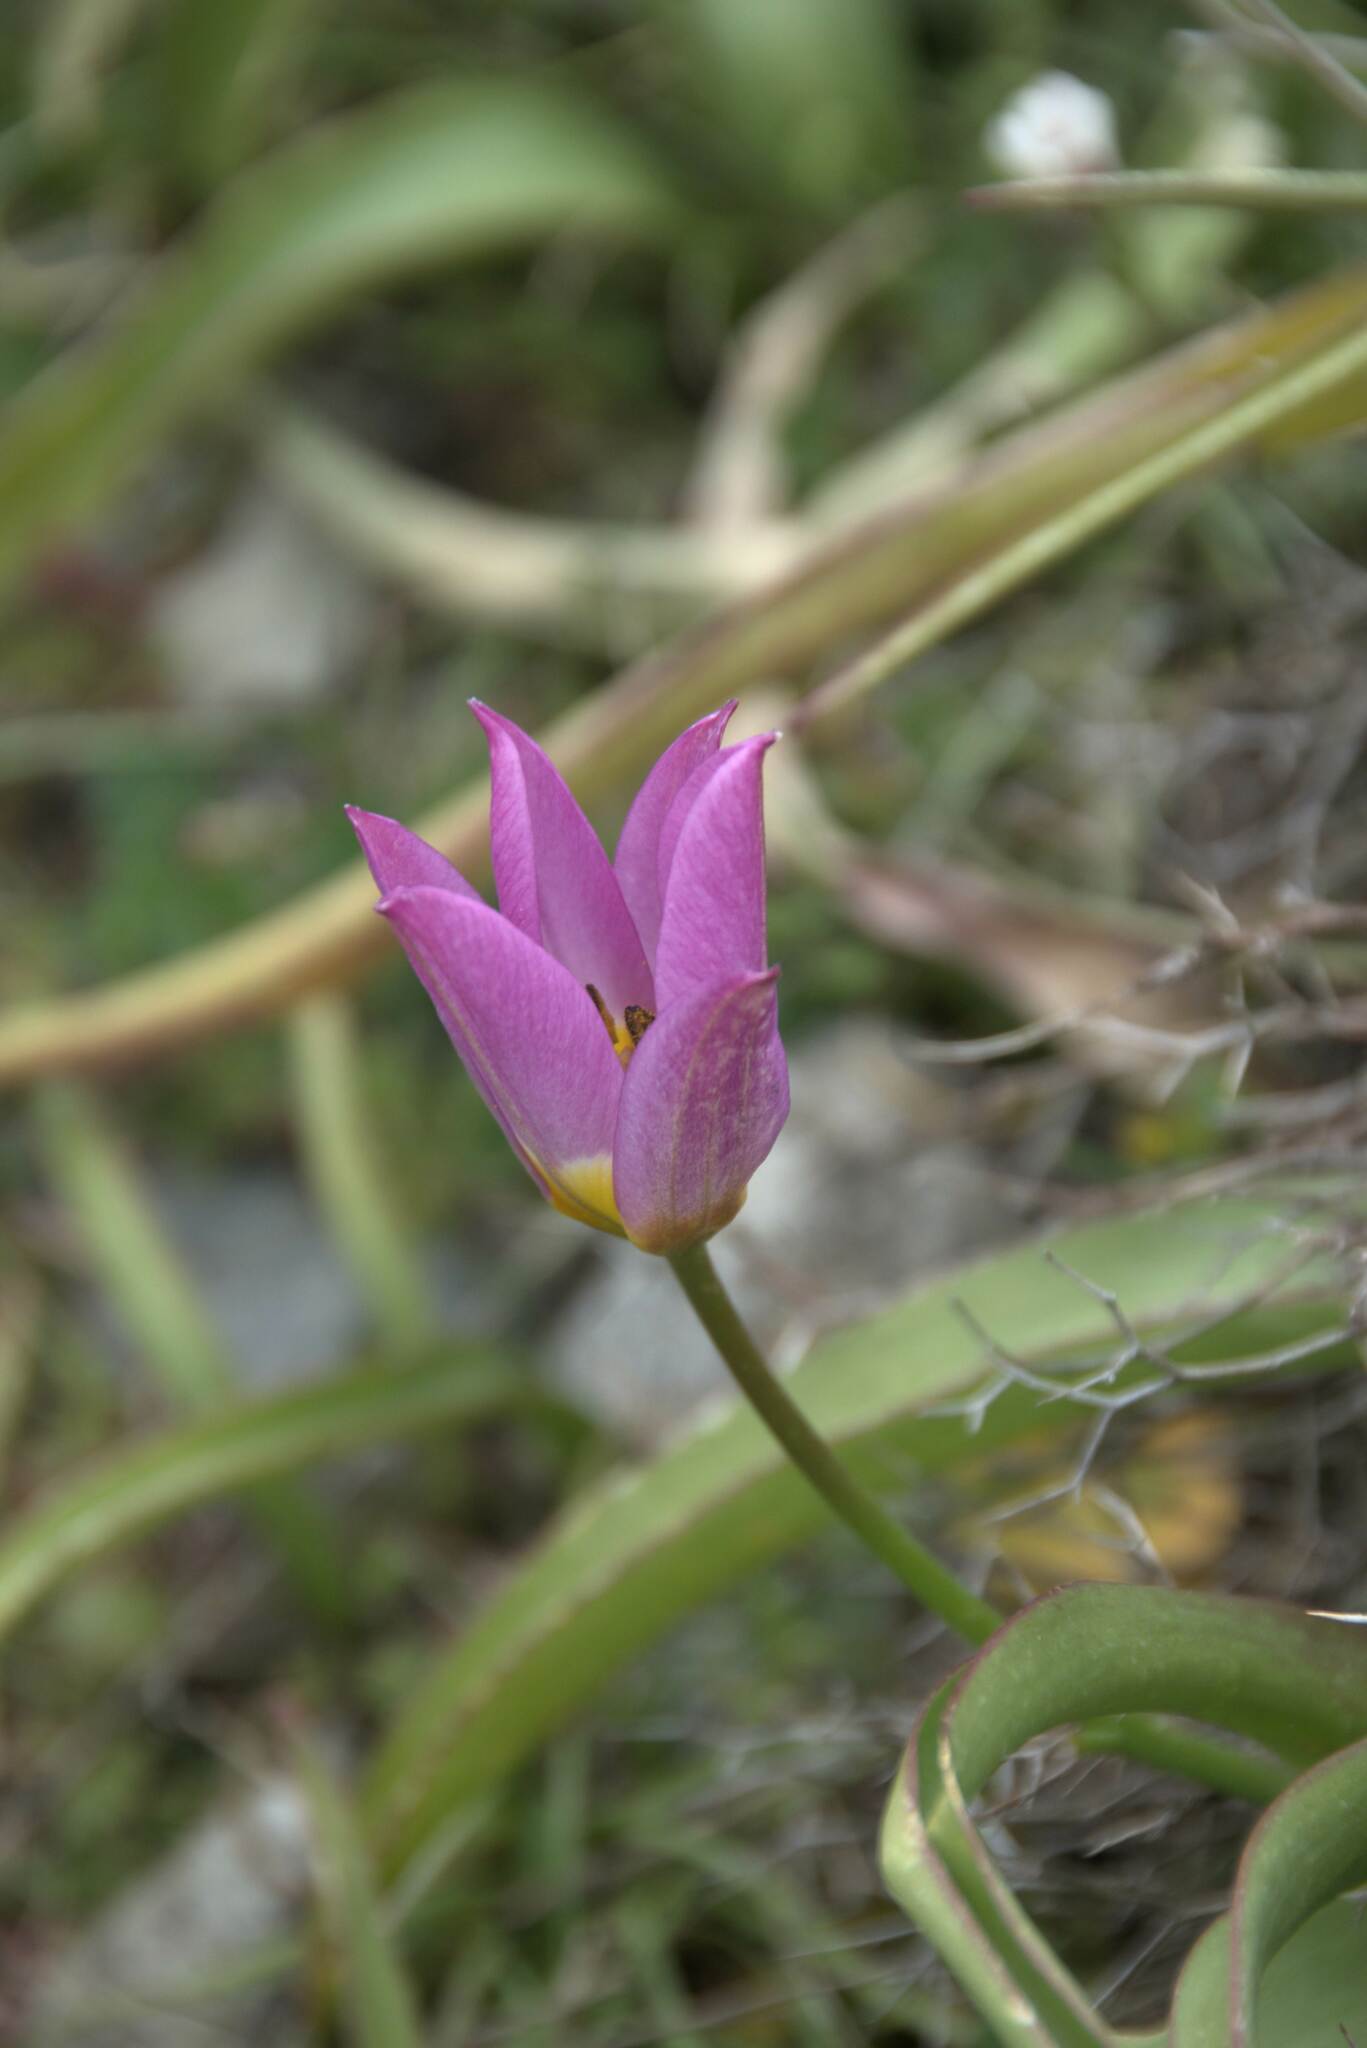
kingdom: Plantae
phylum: Tracheophyta
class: Liliopsida
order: Liliales
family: Liliaceae
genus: Tulipa
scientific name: Tulipa saxatilis
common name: Cretan tulip
